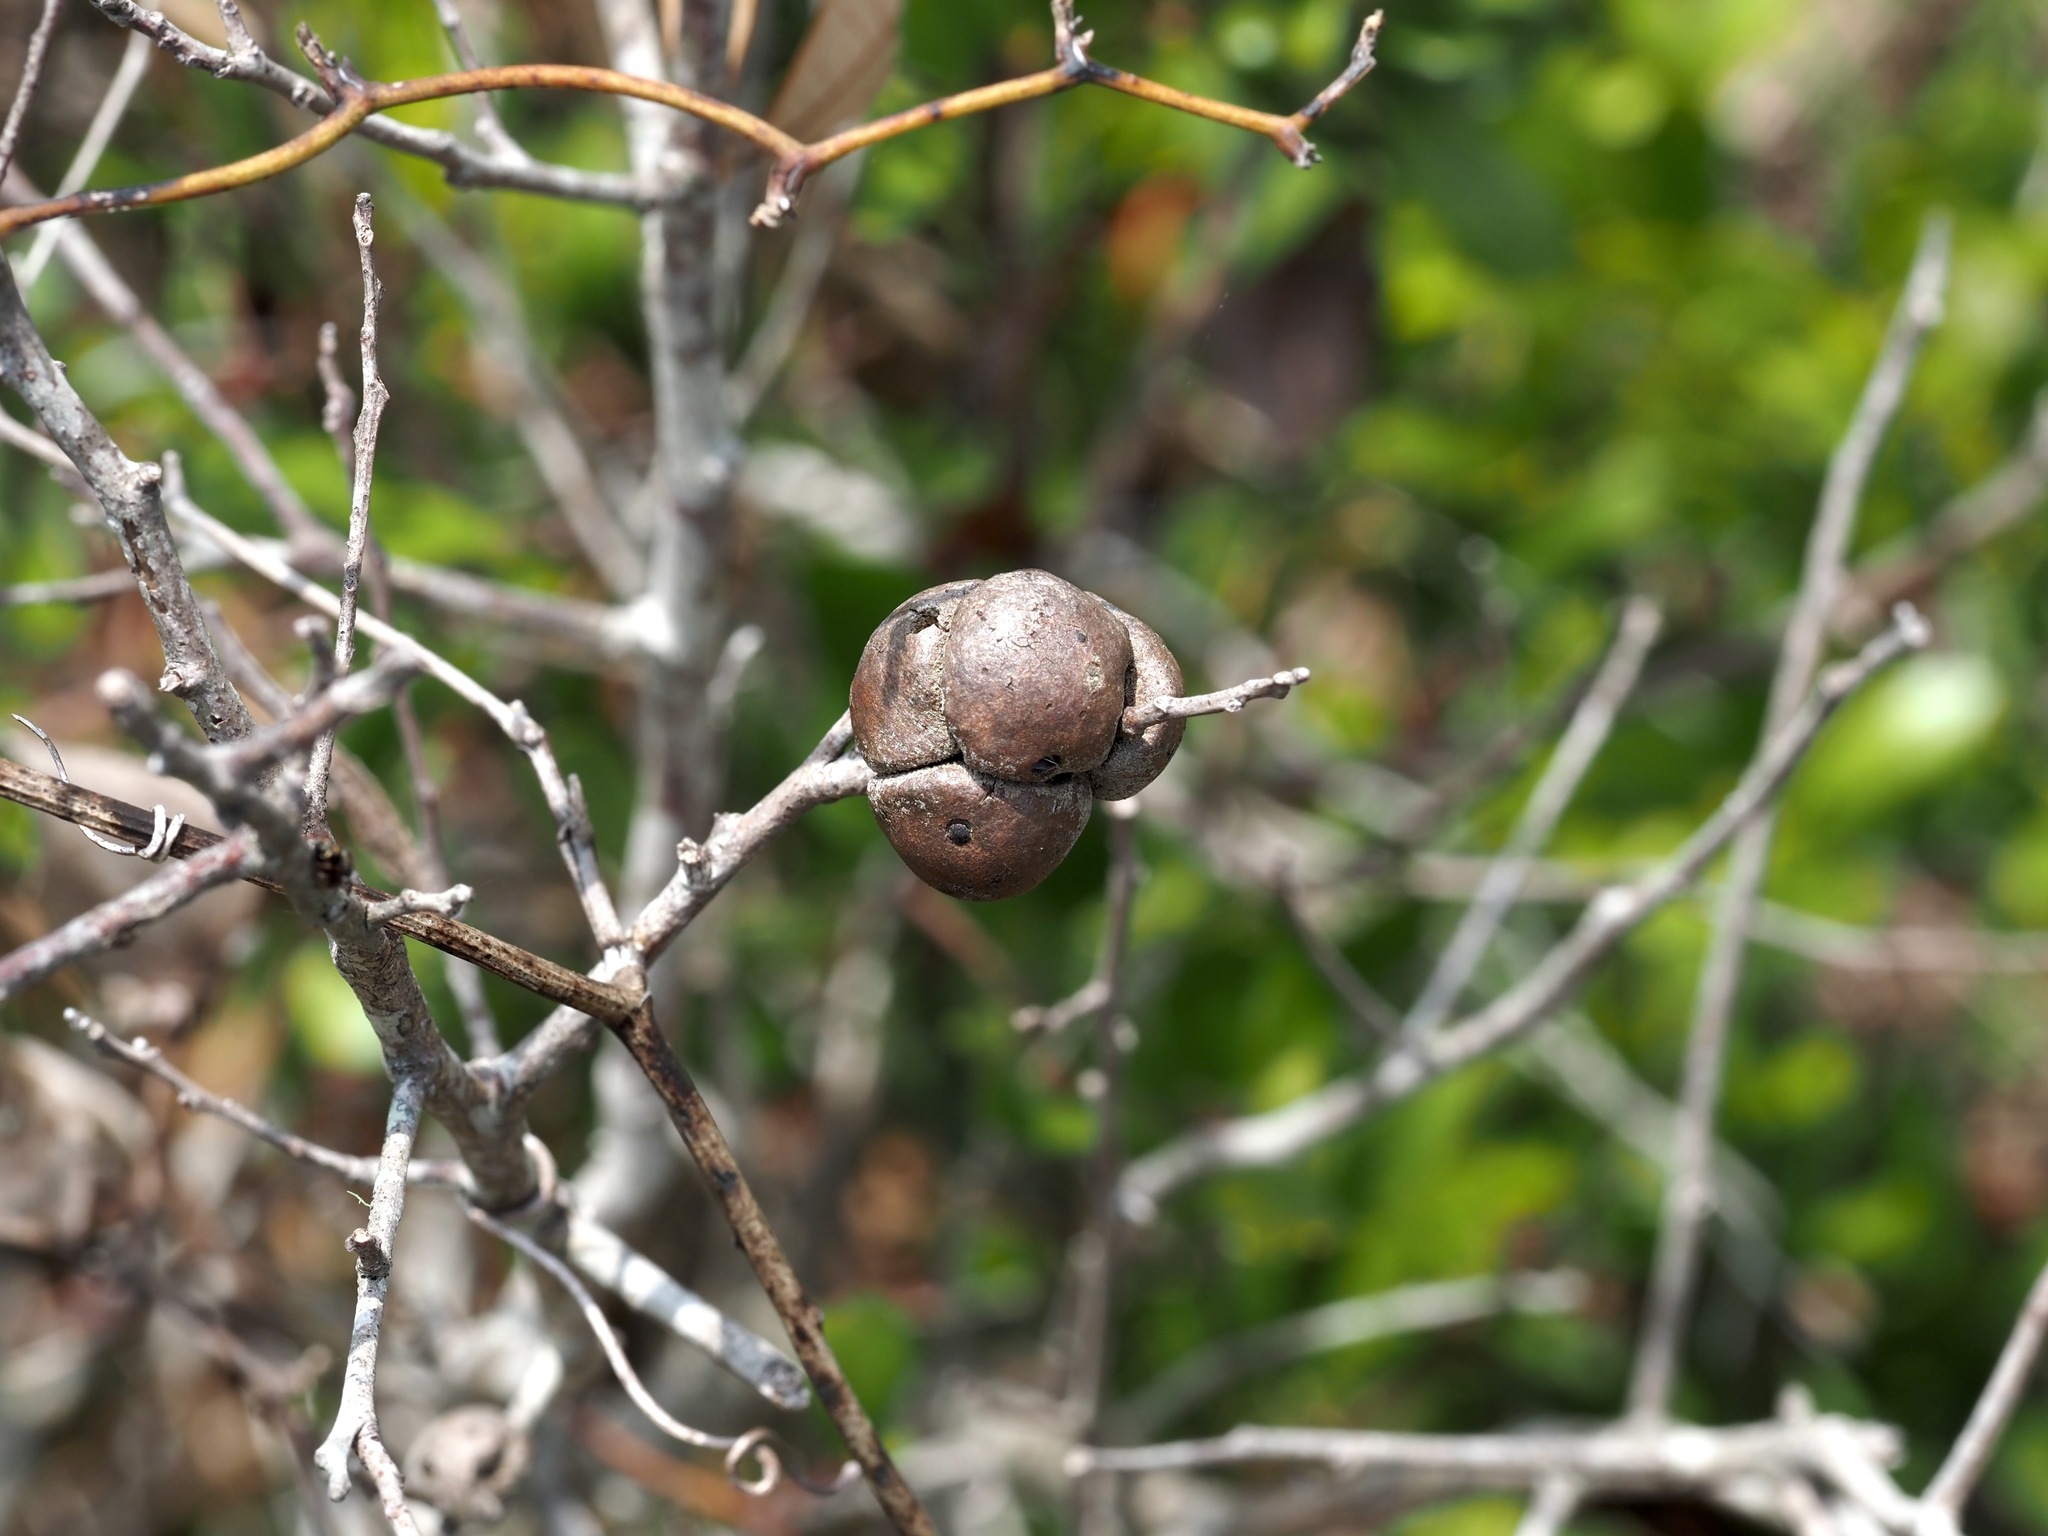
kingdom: Animalia
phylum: Arthropoda
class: Insecta
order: Hymenoptera
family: Cynipidae
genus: Disholcaspis
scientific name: Disholcaspis
